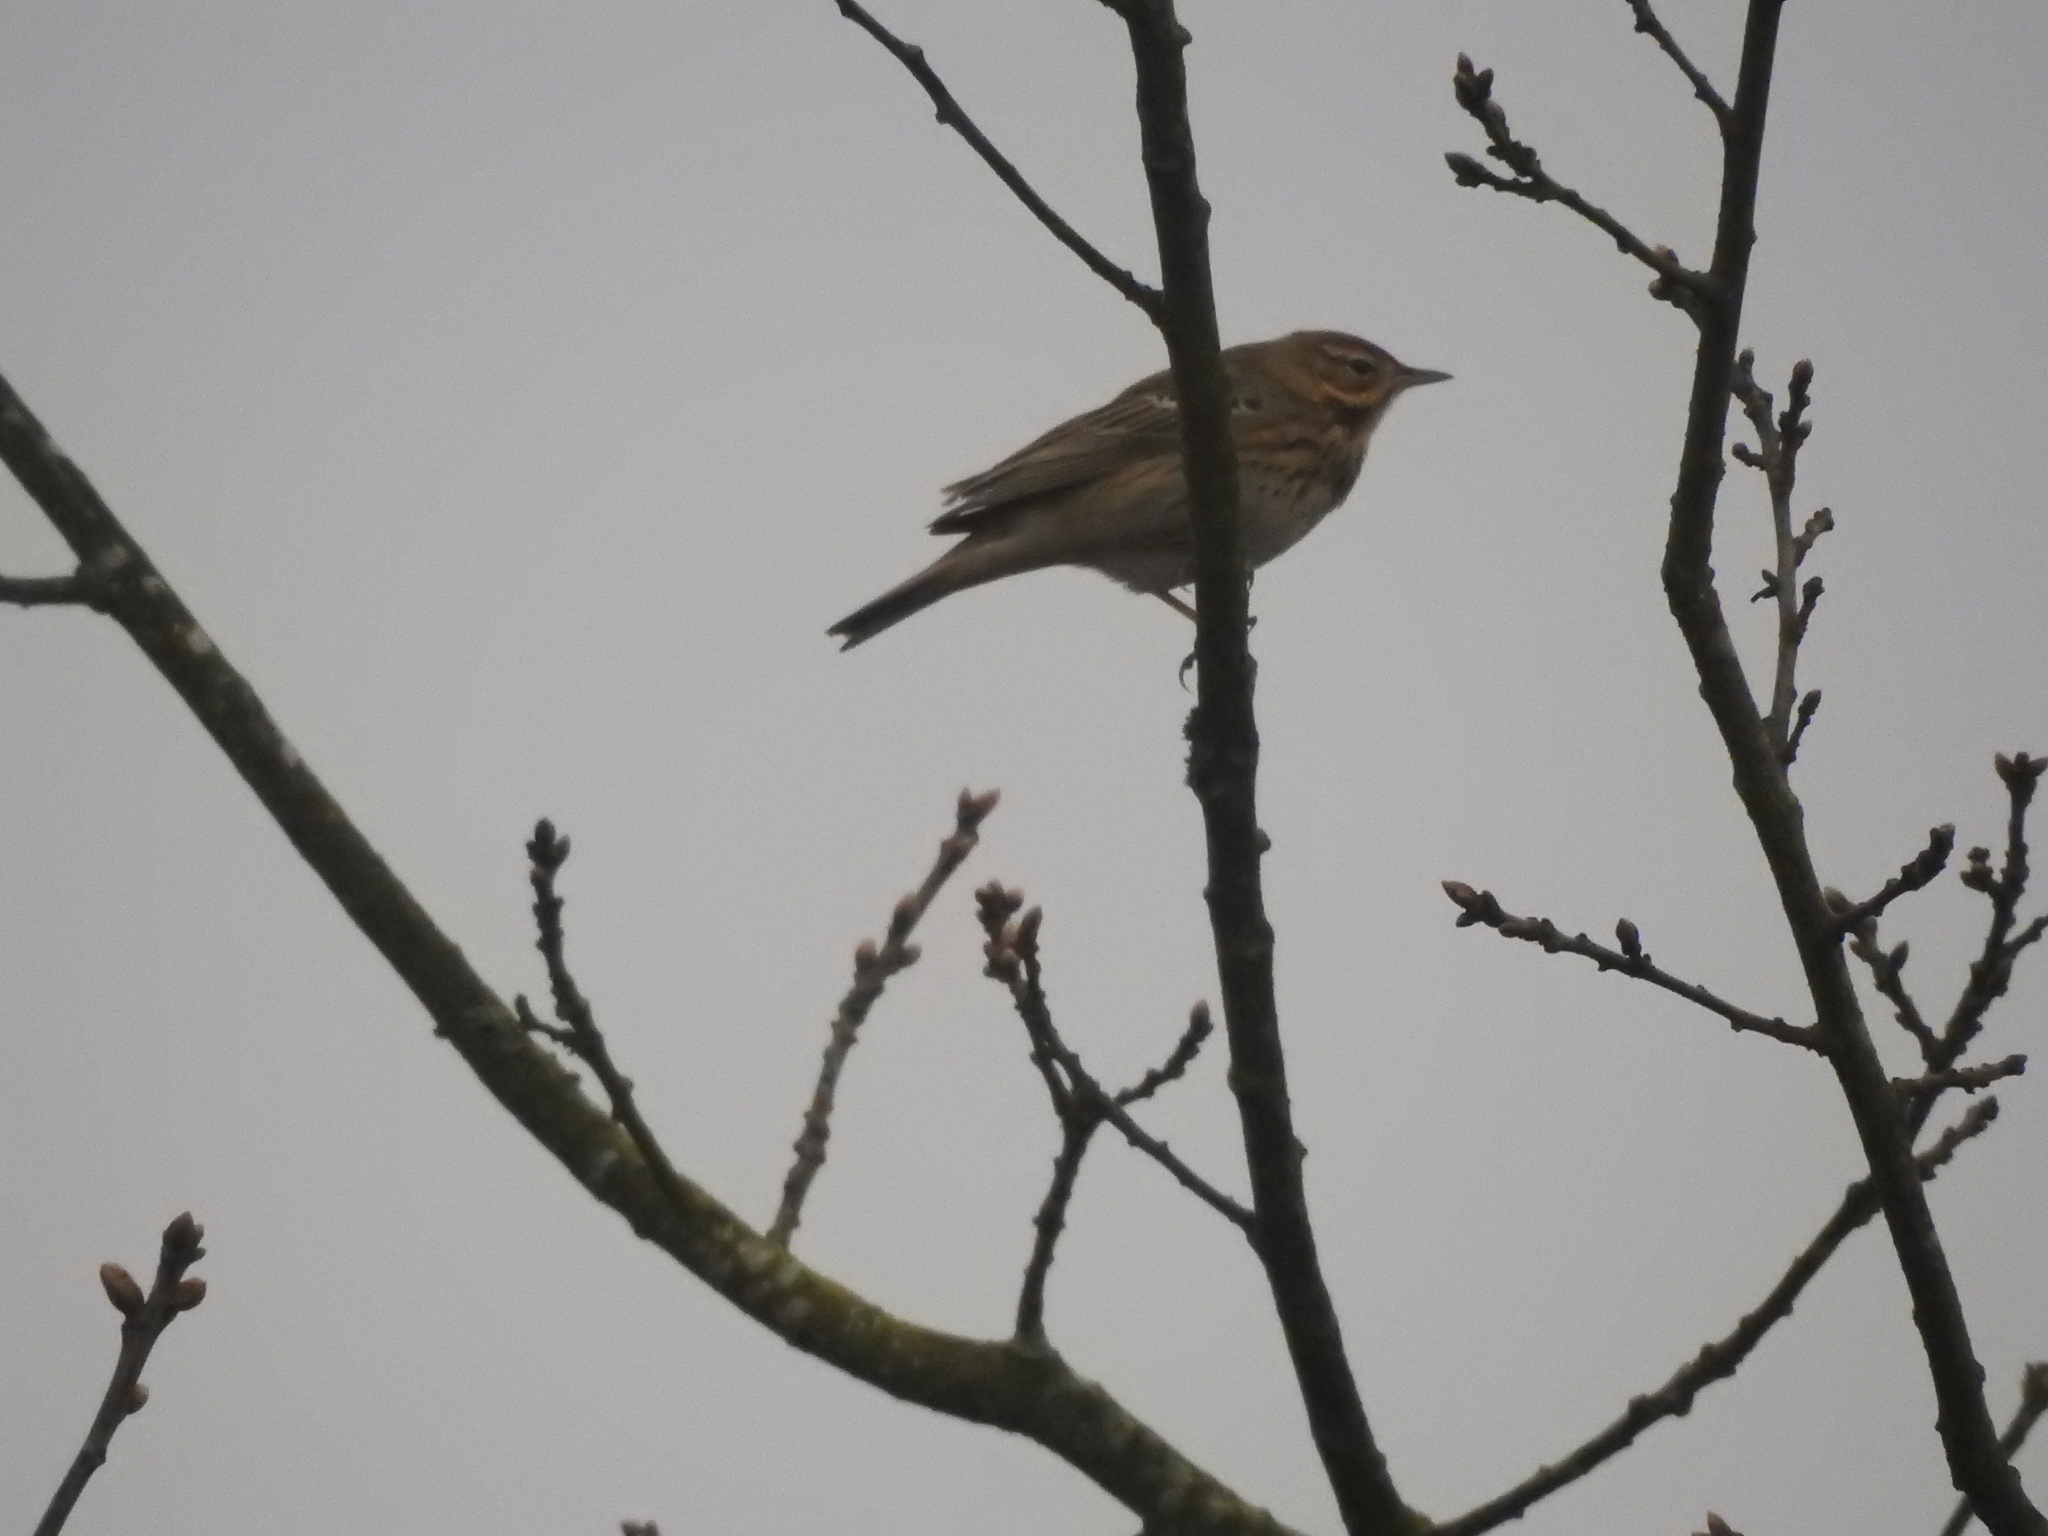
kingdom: Animalia
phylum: Chordata
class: Aves
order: Passeriformes
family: Motacillidae
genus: Anthus
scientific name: Anthus trivialis
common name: Tree pipit
